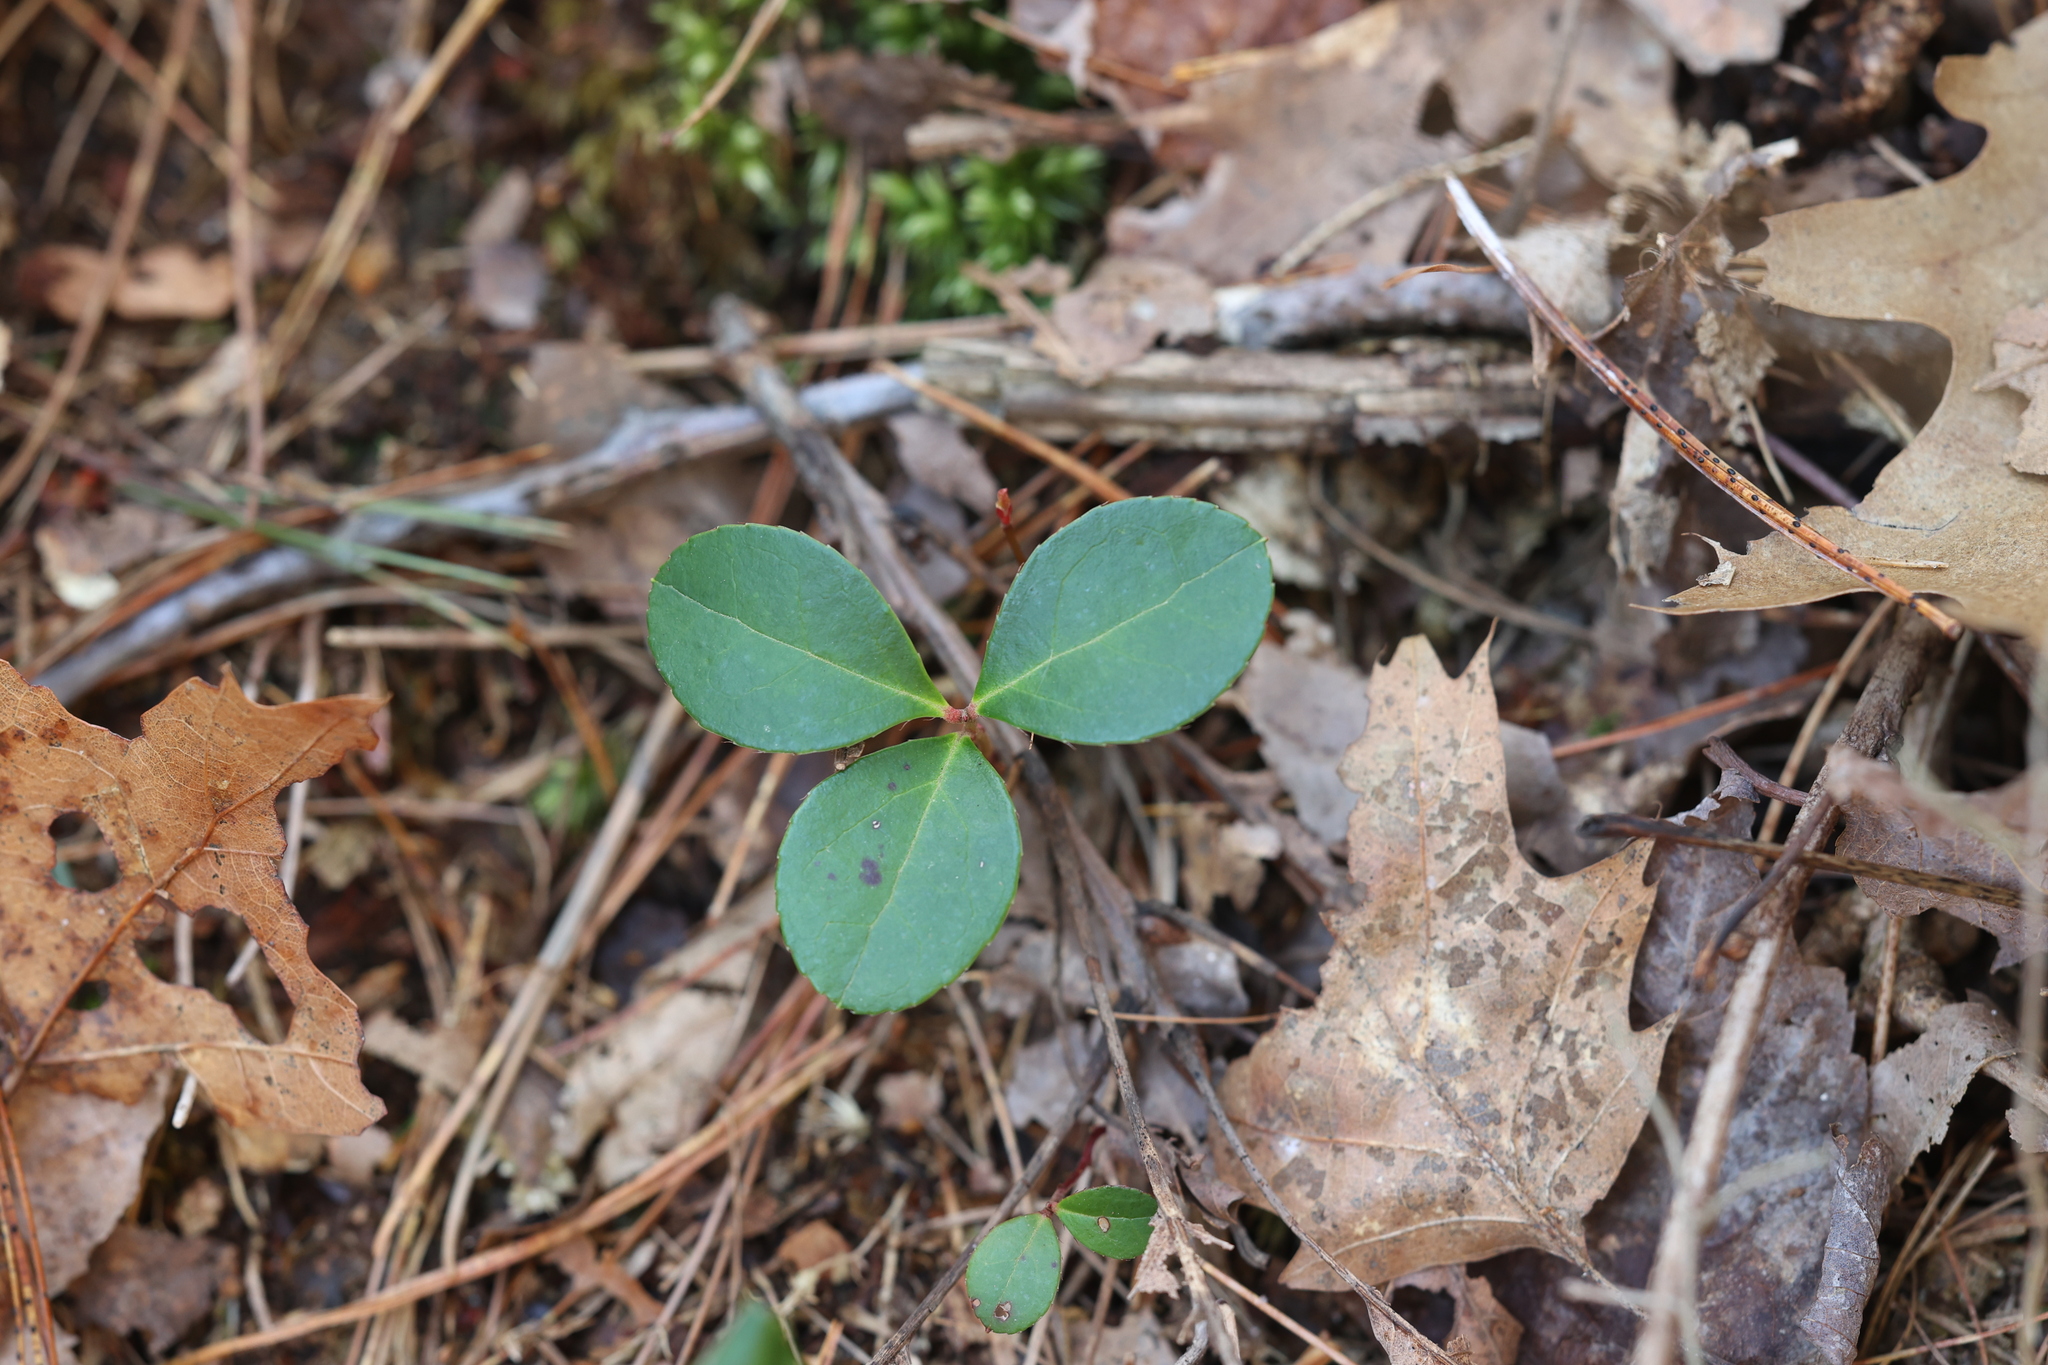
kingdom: Plantae
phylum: Tracheophyta
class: Magnoliopsida
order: Ericales
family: Ericaceae
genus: Gaultheria
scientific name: Gaultheria procumbens
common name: Checkerberry
